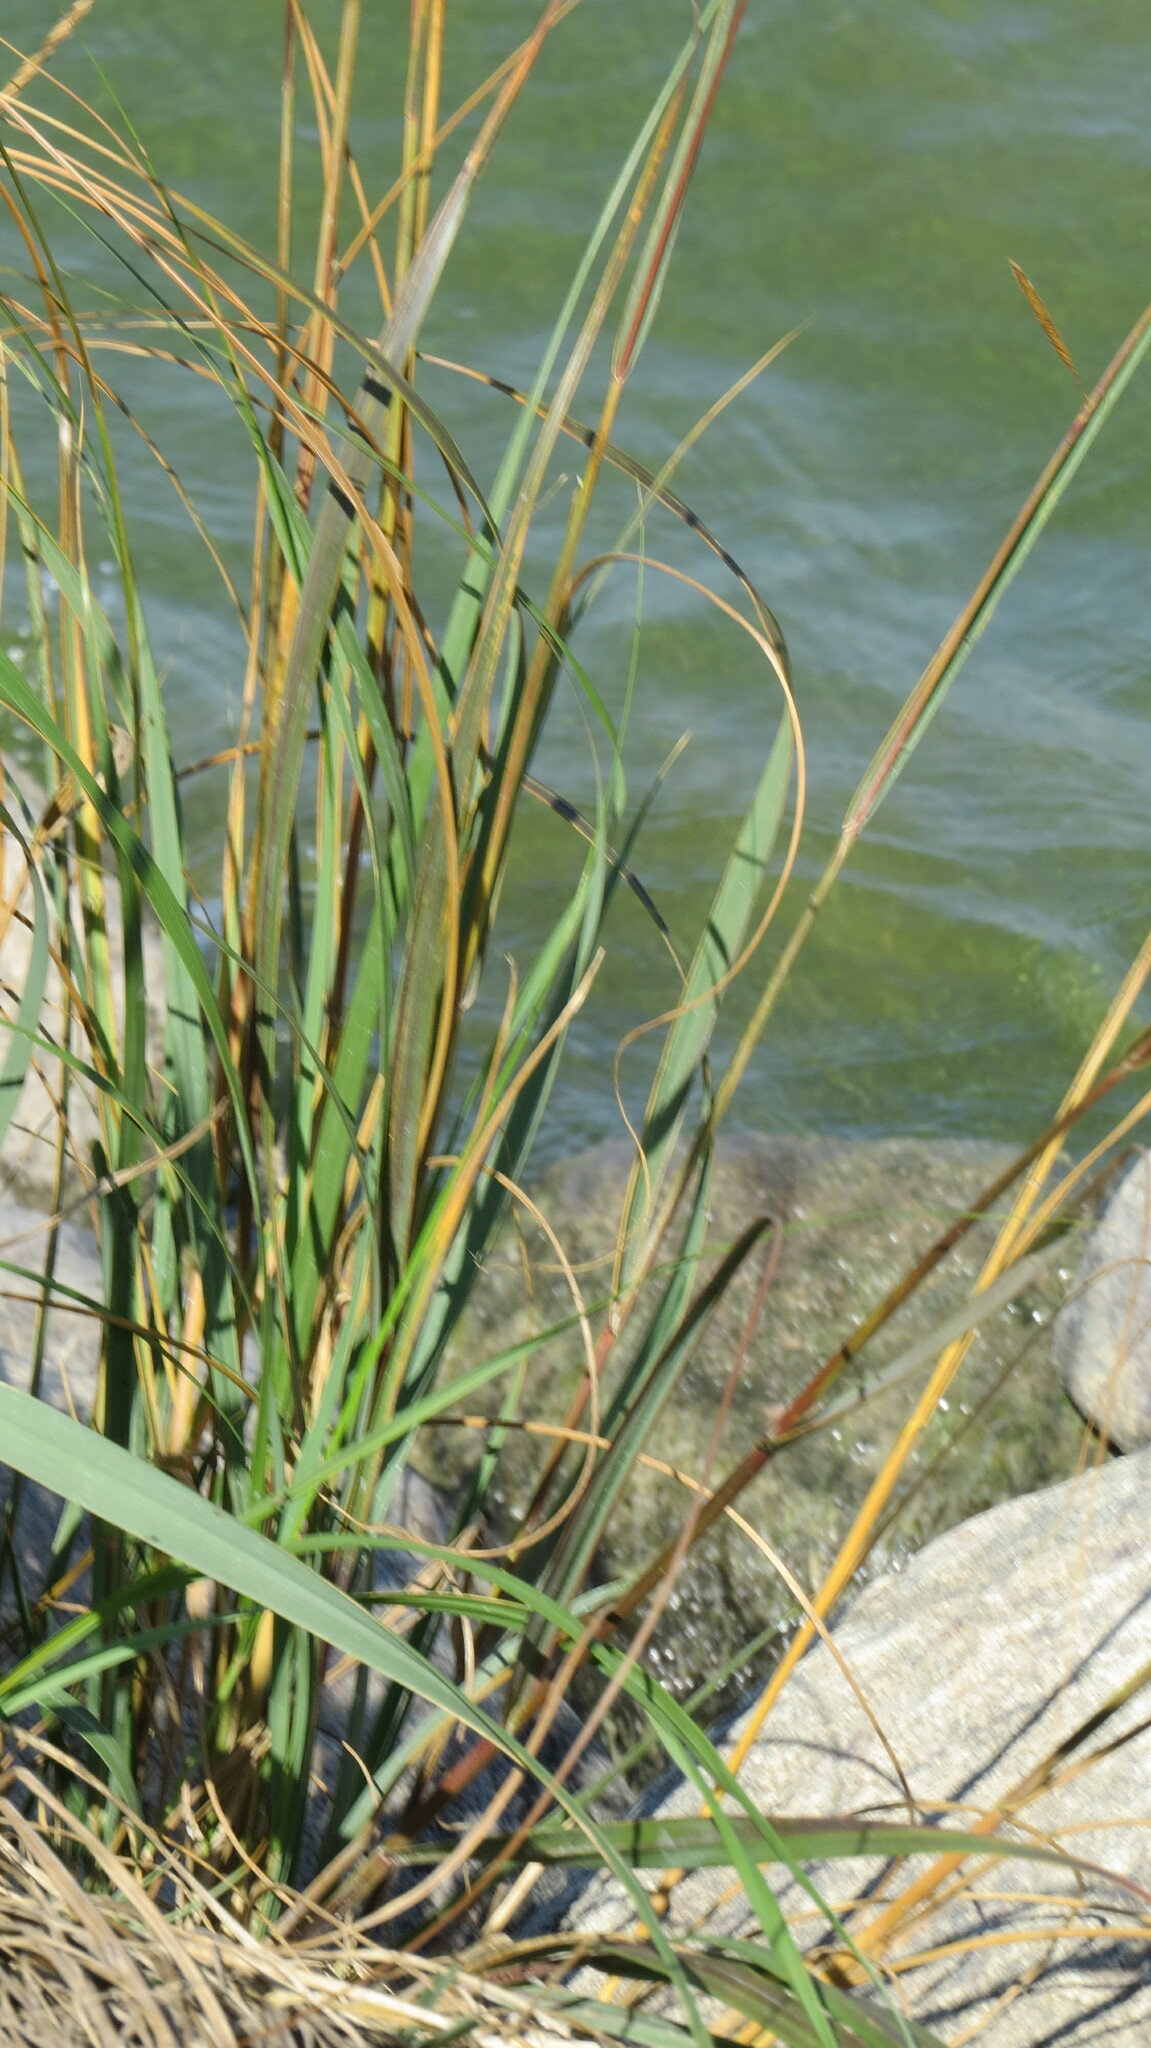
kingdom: Plantae
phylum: Tracheophyta
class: Liliopsida
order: Poales
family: Poaceae
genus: Sporobolus
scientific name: Sporobolus michauxianus
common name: Freshwater cordgrass
